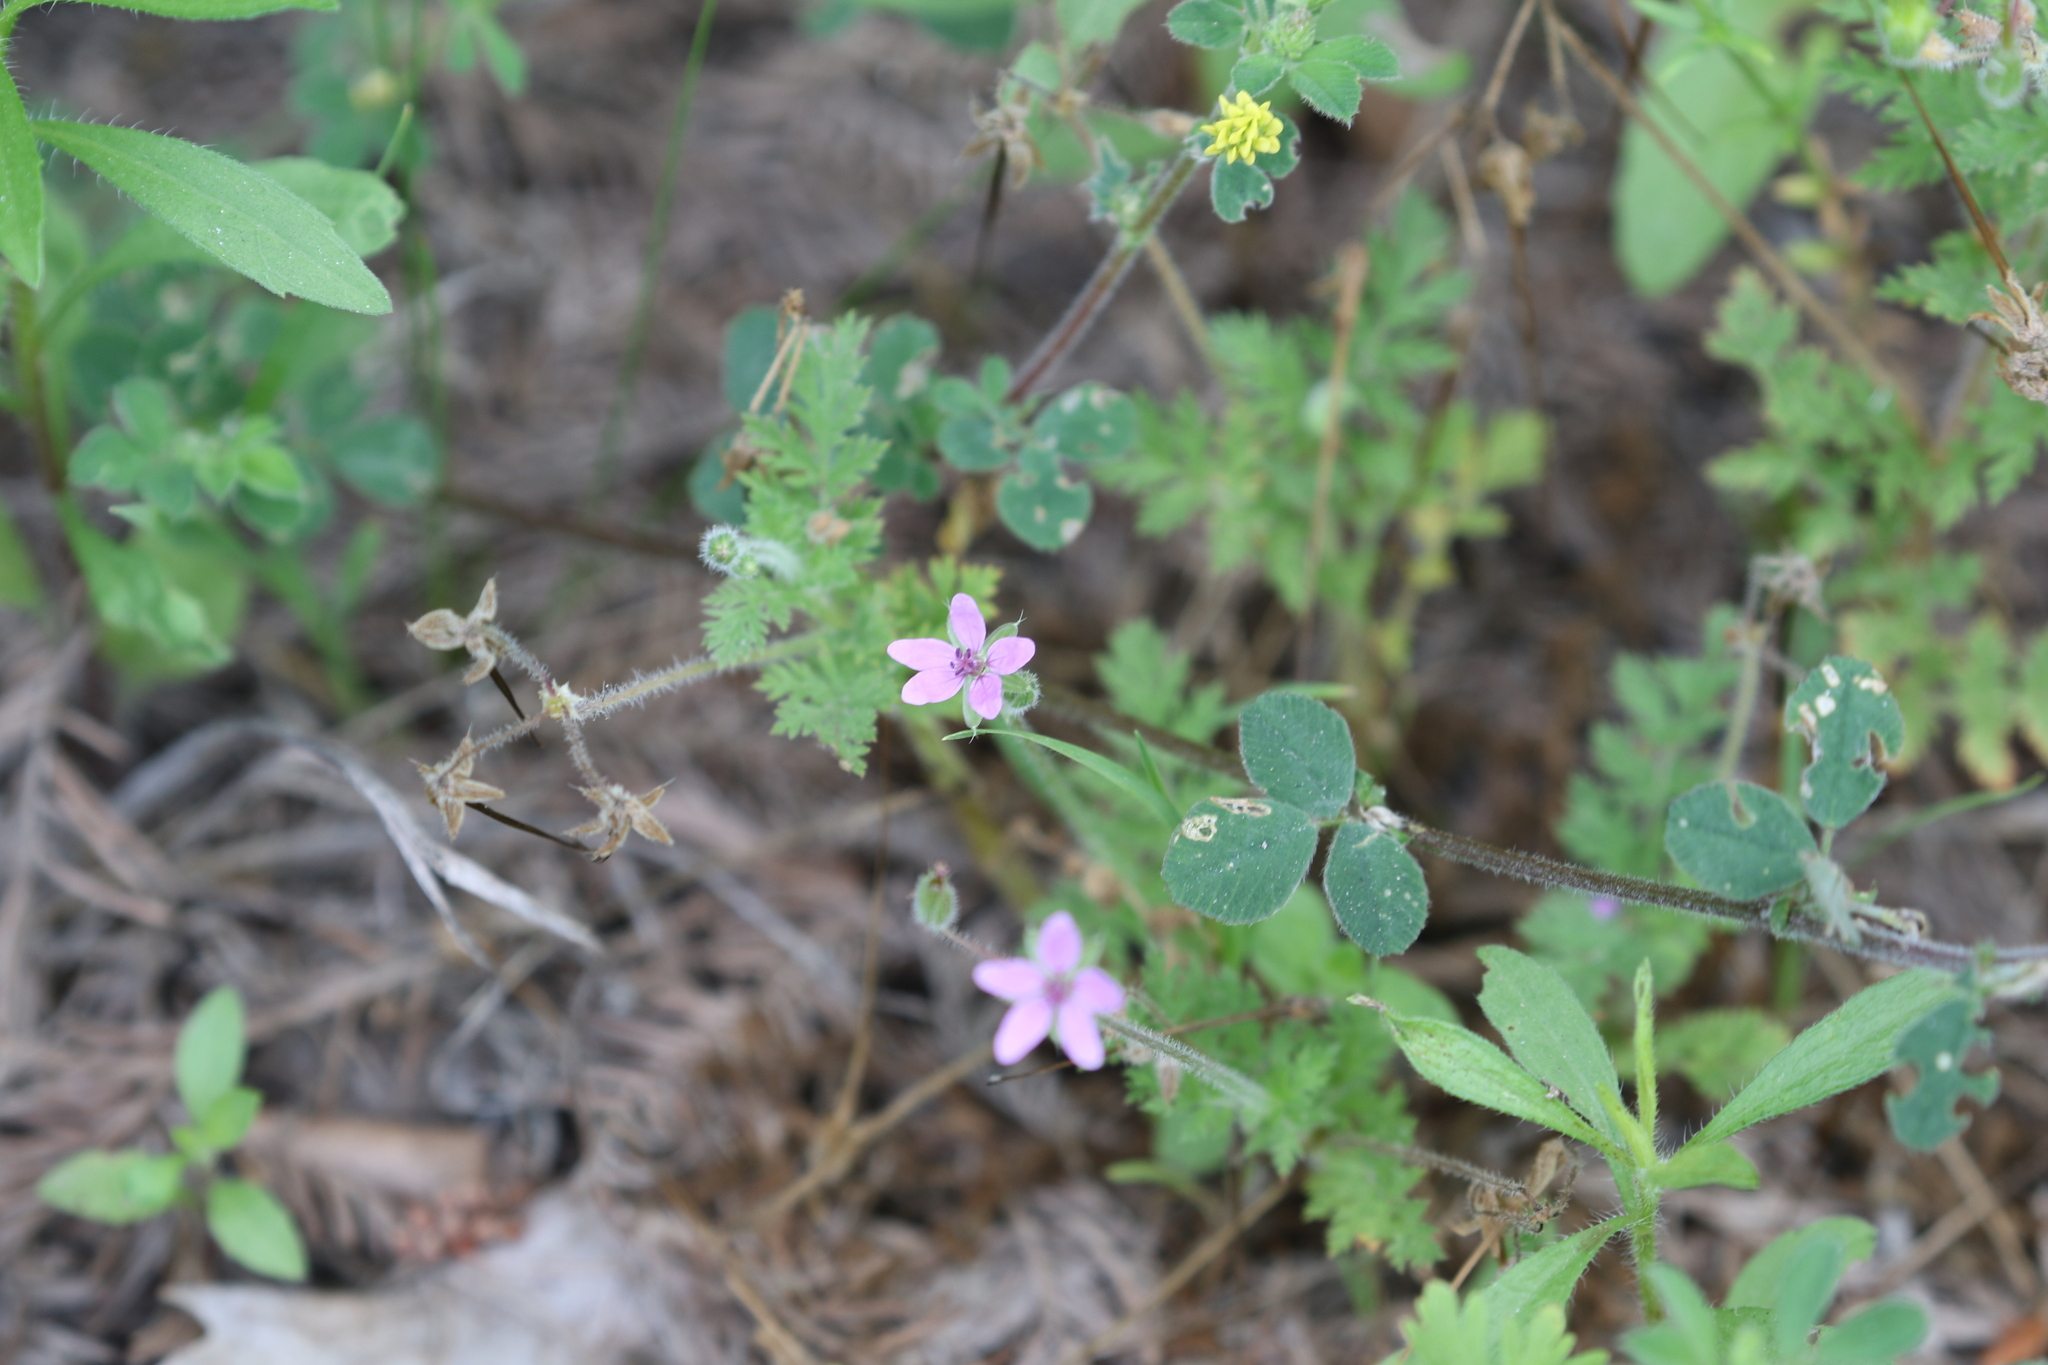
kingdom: Plantae
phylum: Tracheophyta
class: Magnoliopsida
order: Geraniales
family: Geraniaceae
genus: Erodium
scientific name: Erodium cicutarium
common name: Common stork's-bill
